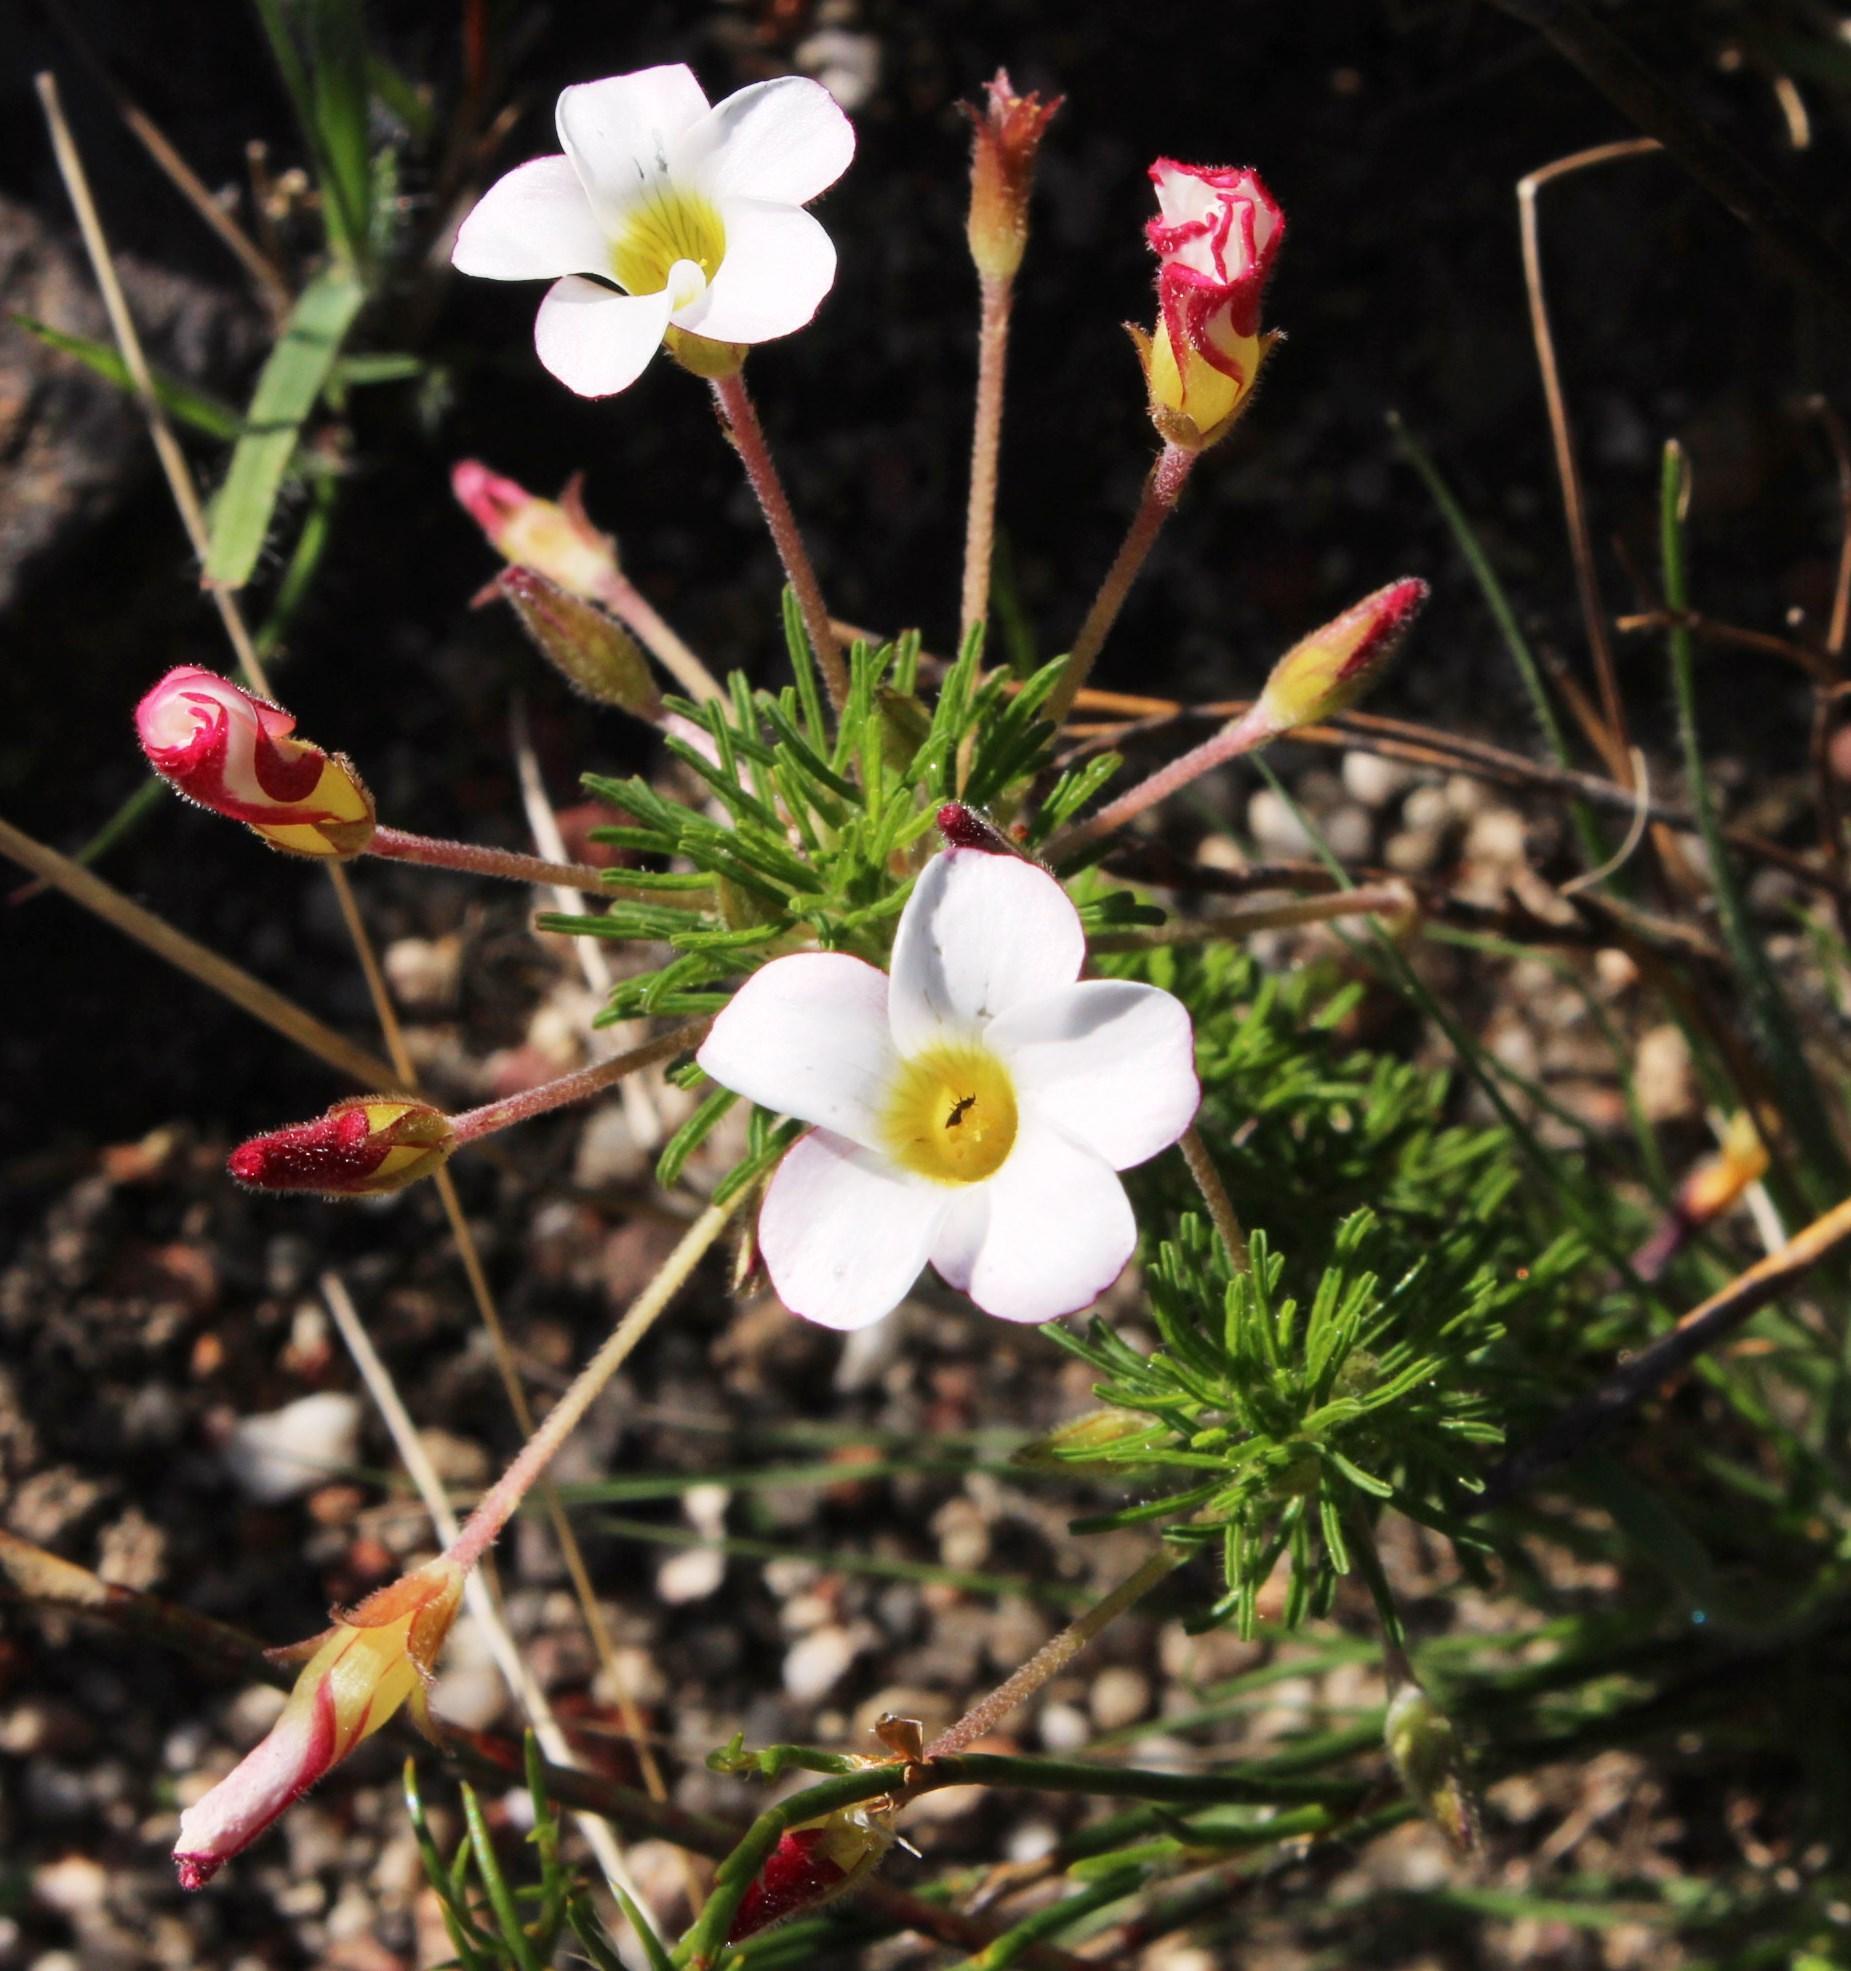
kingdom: Plantae
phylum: Tracheophyta
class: Magnoliopsida
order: Oxalidales
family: Oxalidaceae
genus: Oxalis
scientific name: Oxalis tenuifolia
